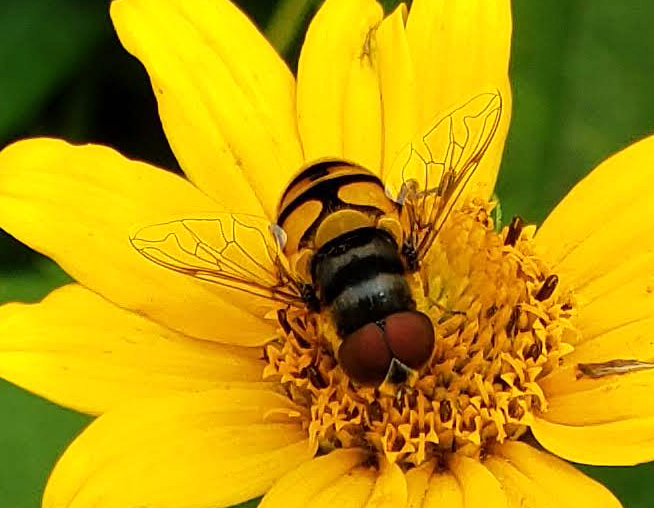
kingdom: Animalia
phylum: Arthropoda
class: Insecta
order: Diptera
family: Syrphidae
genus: Eristalis
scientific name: Eristalis transversa
